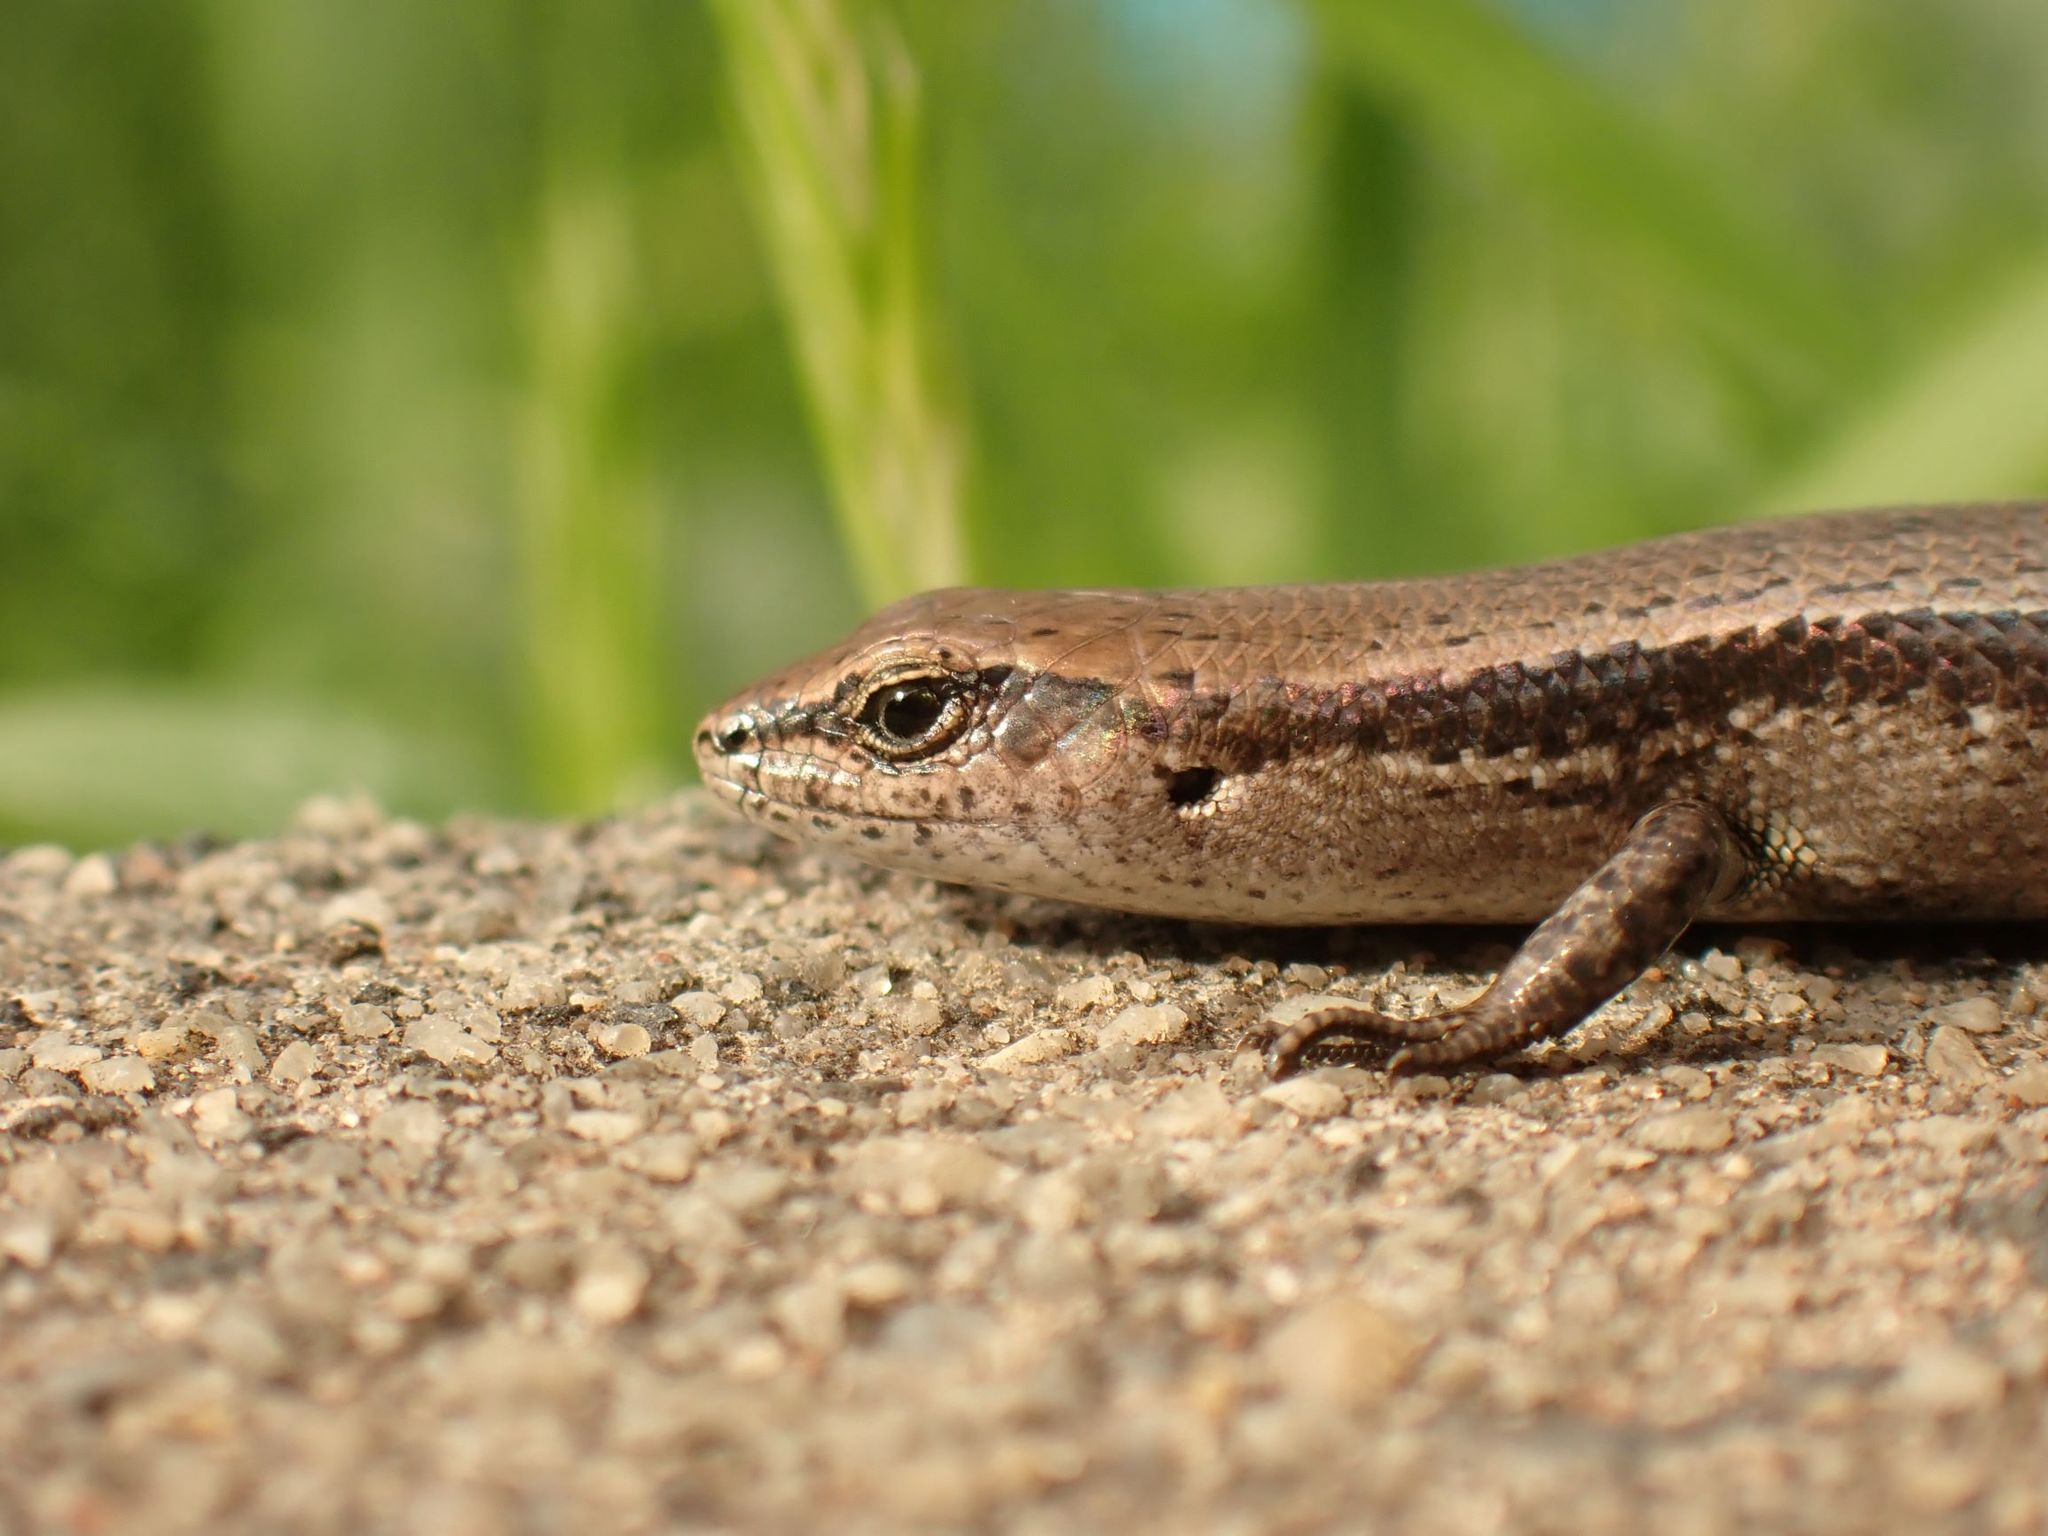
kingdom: Animalia
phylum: Chordata
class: Squamata
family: Scincidae
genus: Lampropholis
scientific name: Lampropholis guichenoti
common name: Garden skink
